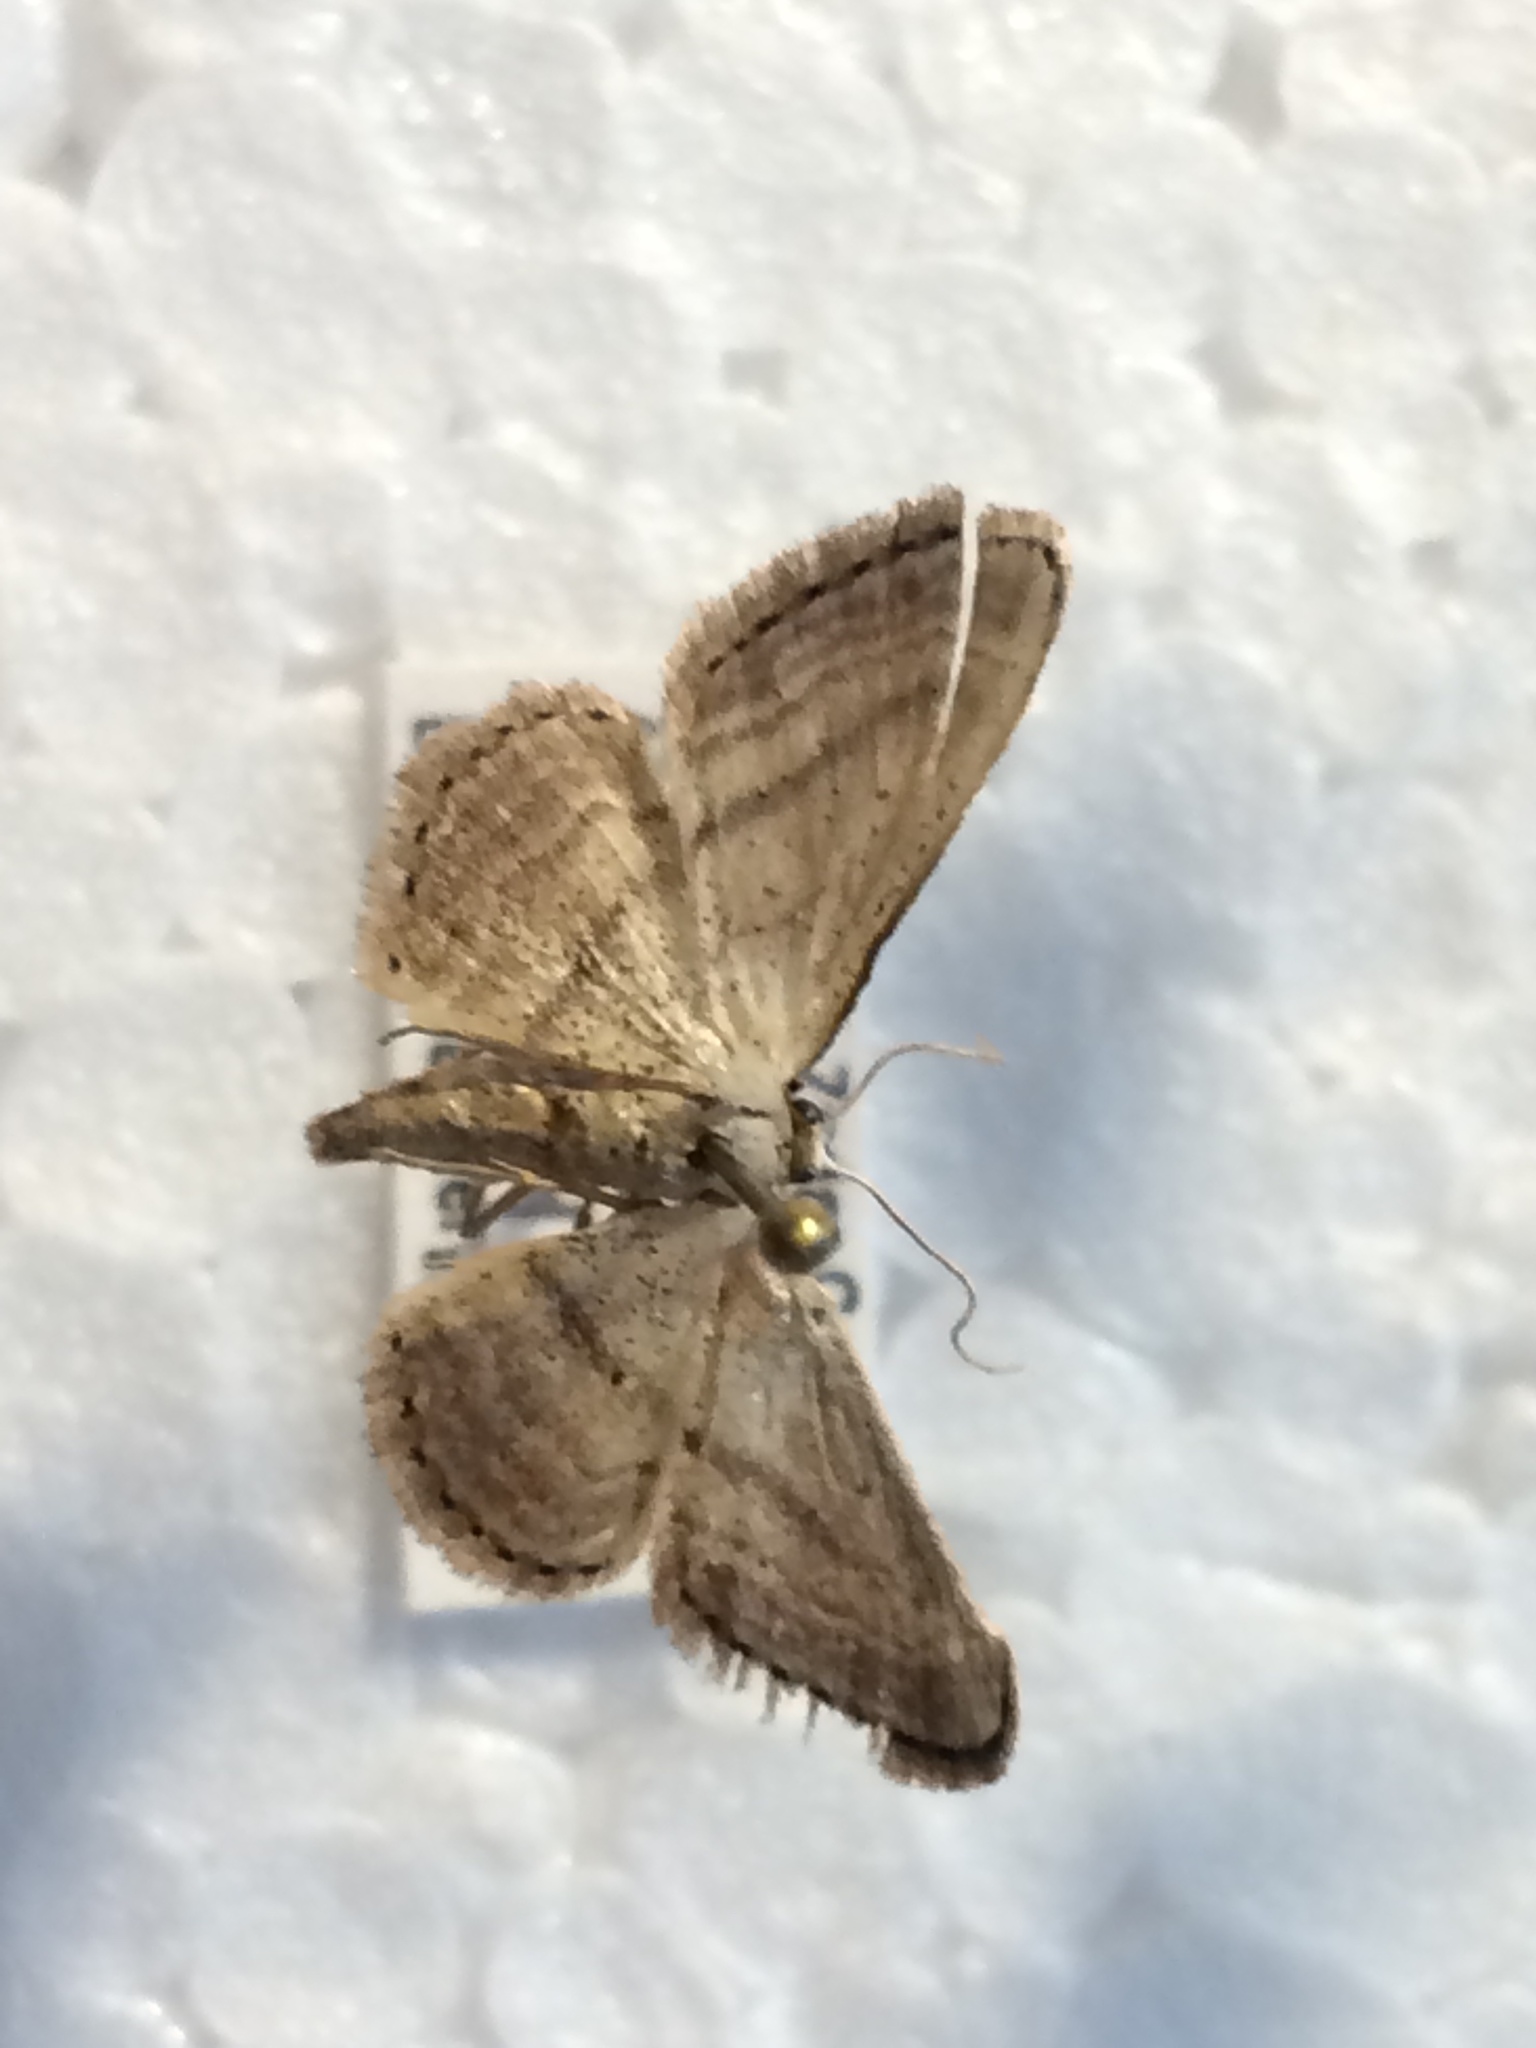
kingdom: Animalia
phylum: Arthropoda
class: Insecta
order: Lepidoptera
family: Geometridae
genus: Idaea
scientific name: Idaea leipnitzi
